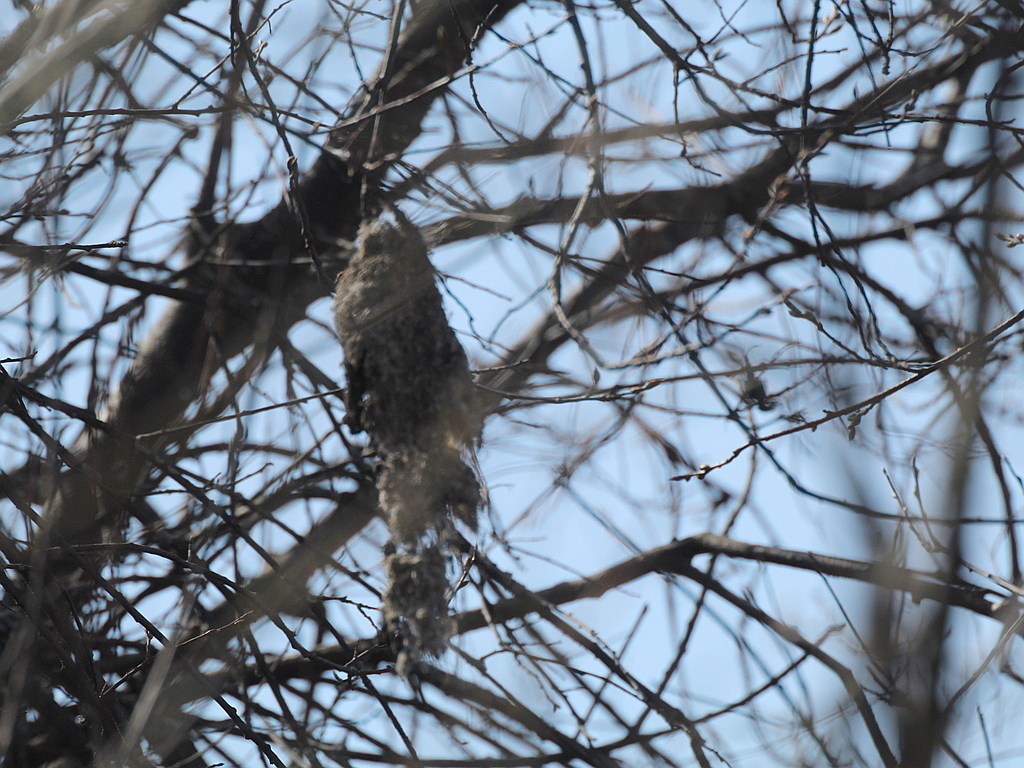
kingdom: Animalia
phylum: Chordata
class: Aves
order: Passeriformes
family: Remizidae
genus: Remiz
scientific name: Remiz pendulinus
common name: Eurasian penduline tit
